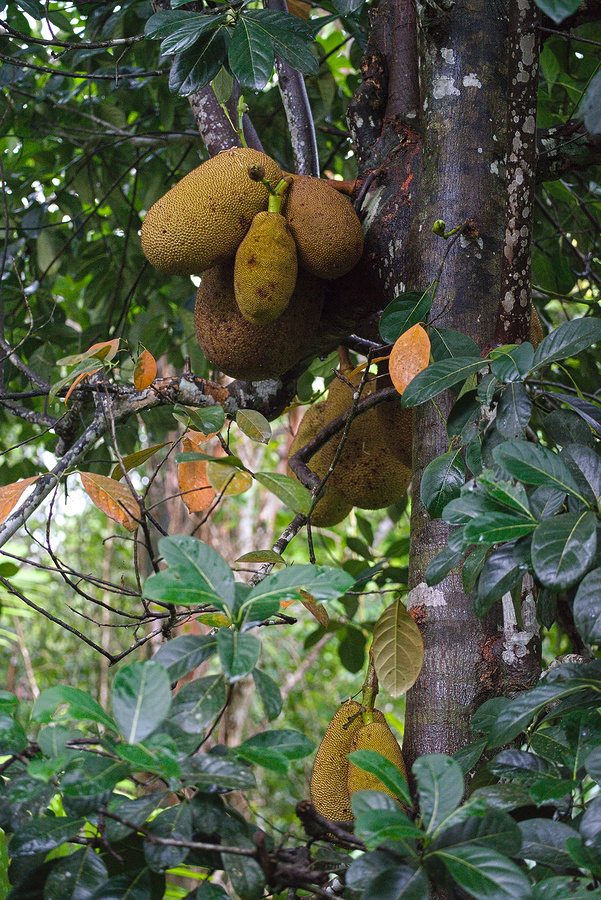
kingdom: Plantae
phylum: Tracheophyta
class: Magnoliopsida
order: Rosales
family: Moraceae
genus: Artocarpus
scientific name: Artocarpus heterophyllus
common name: Jackfruit
